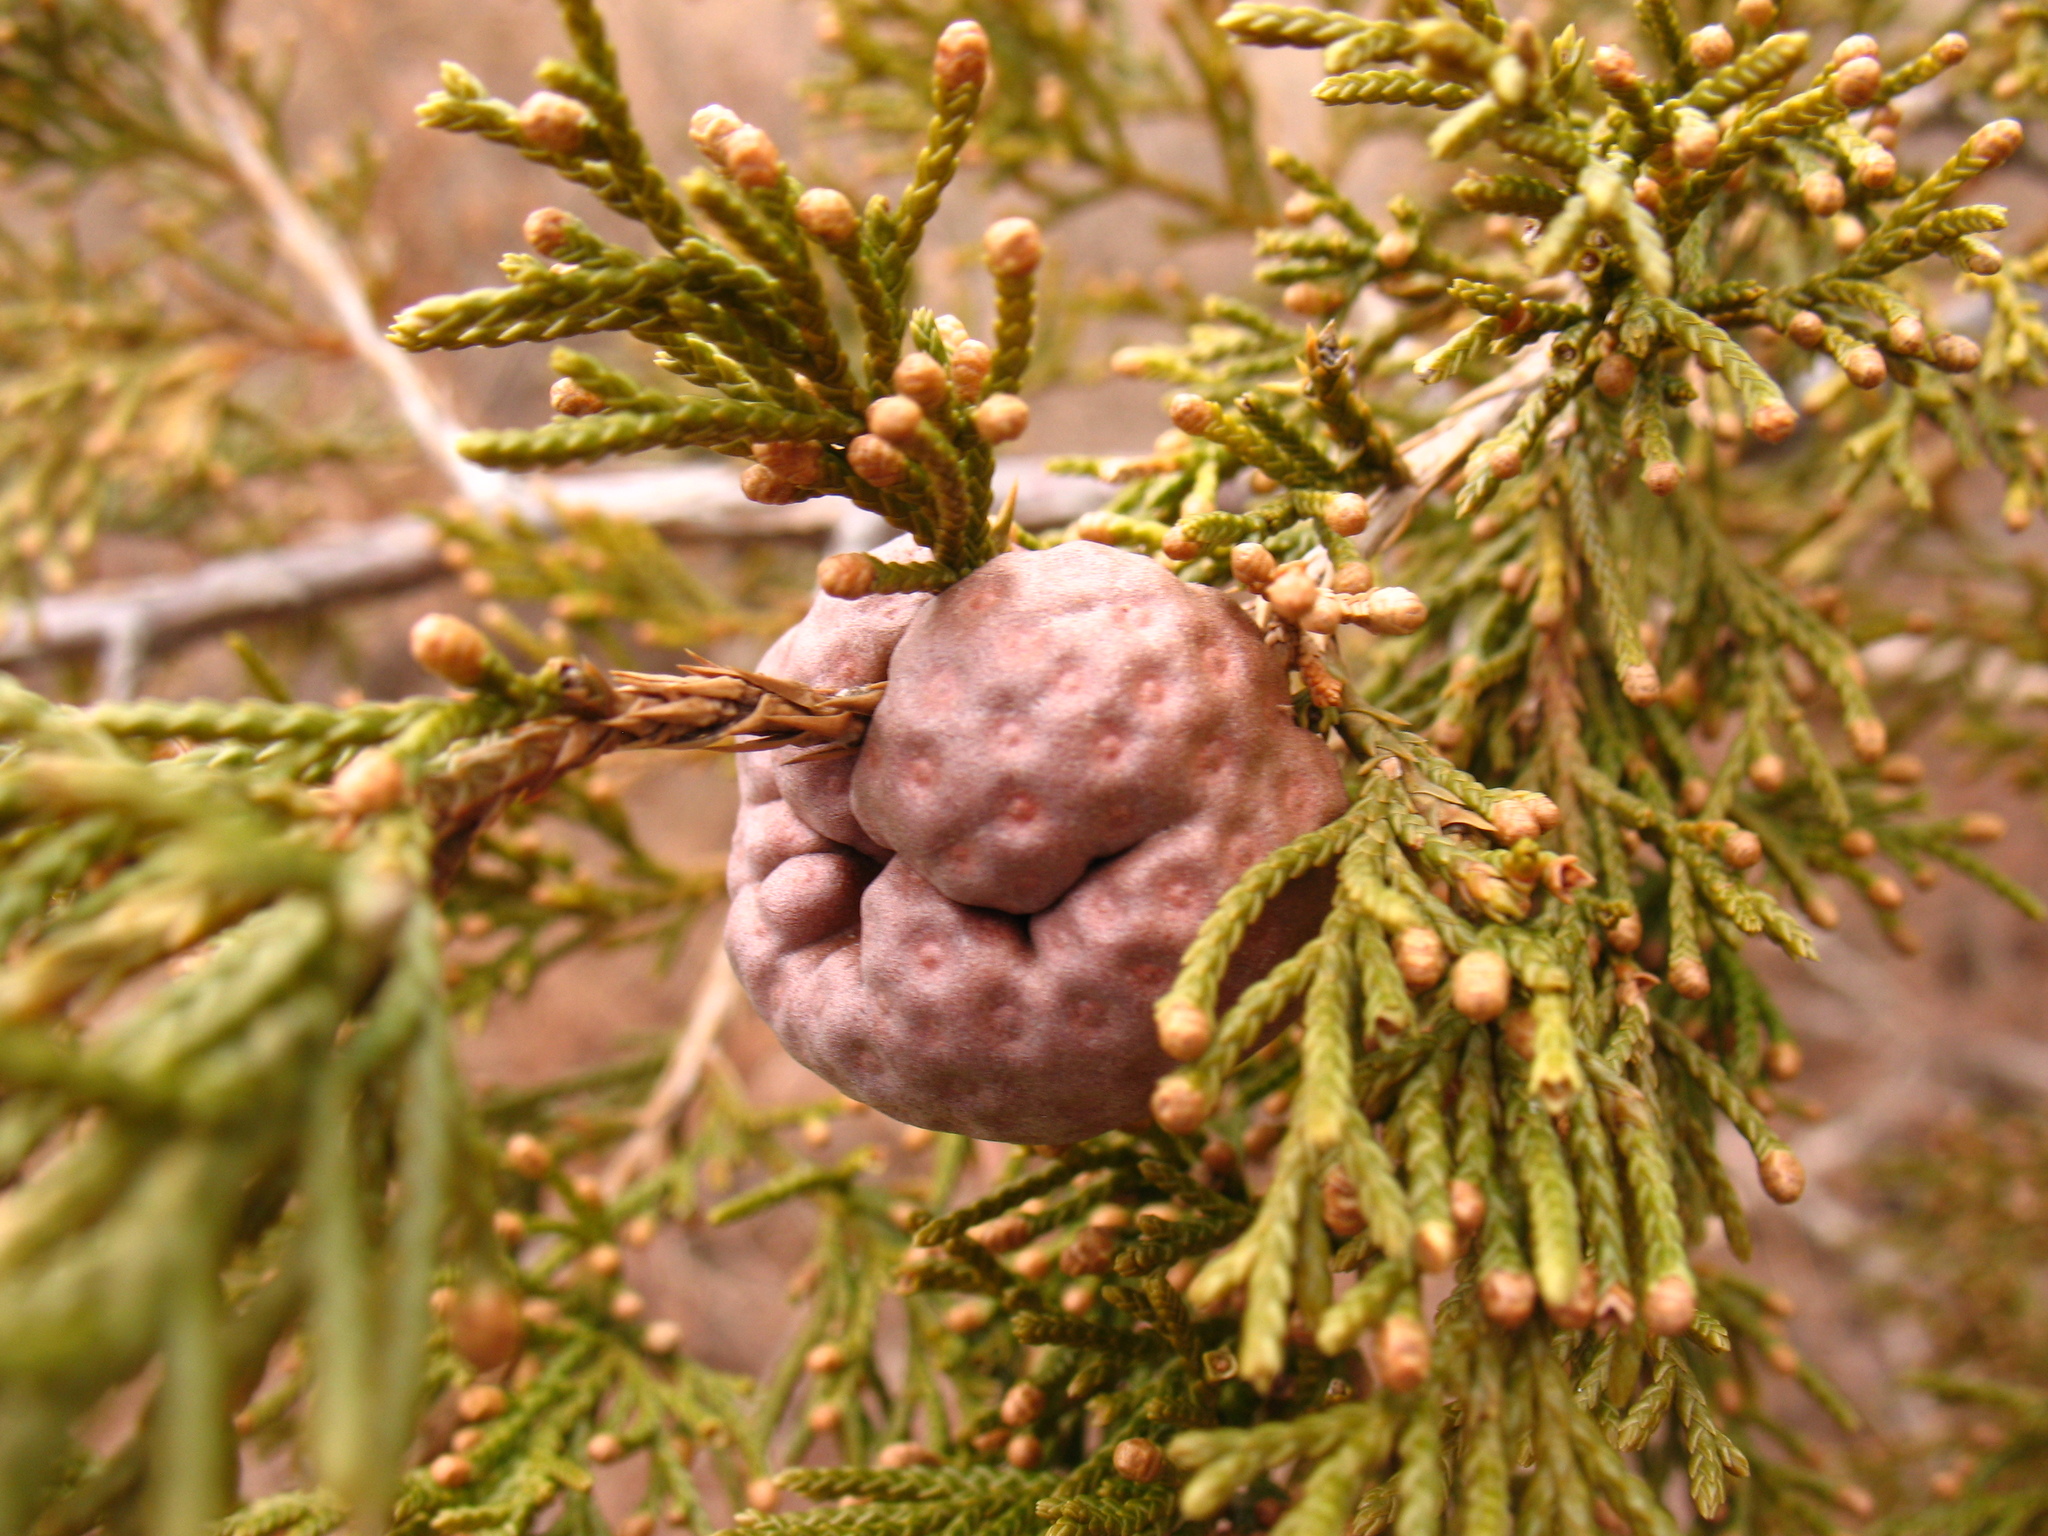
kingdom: Fungi
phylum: Basidiomycota
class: Pucciniomycetes
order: Pucciniales
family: Gymnosporangiaceae
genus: Gymnosporangium
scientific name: Gymnosporangium juniperi-virginianae
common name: Juniper-apple rust
